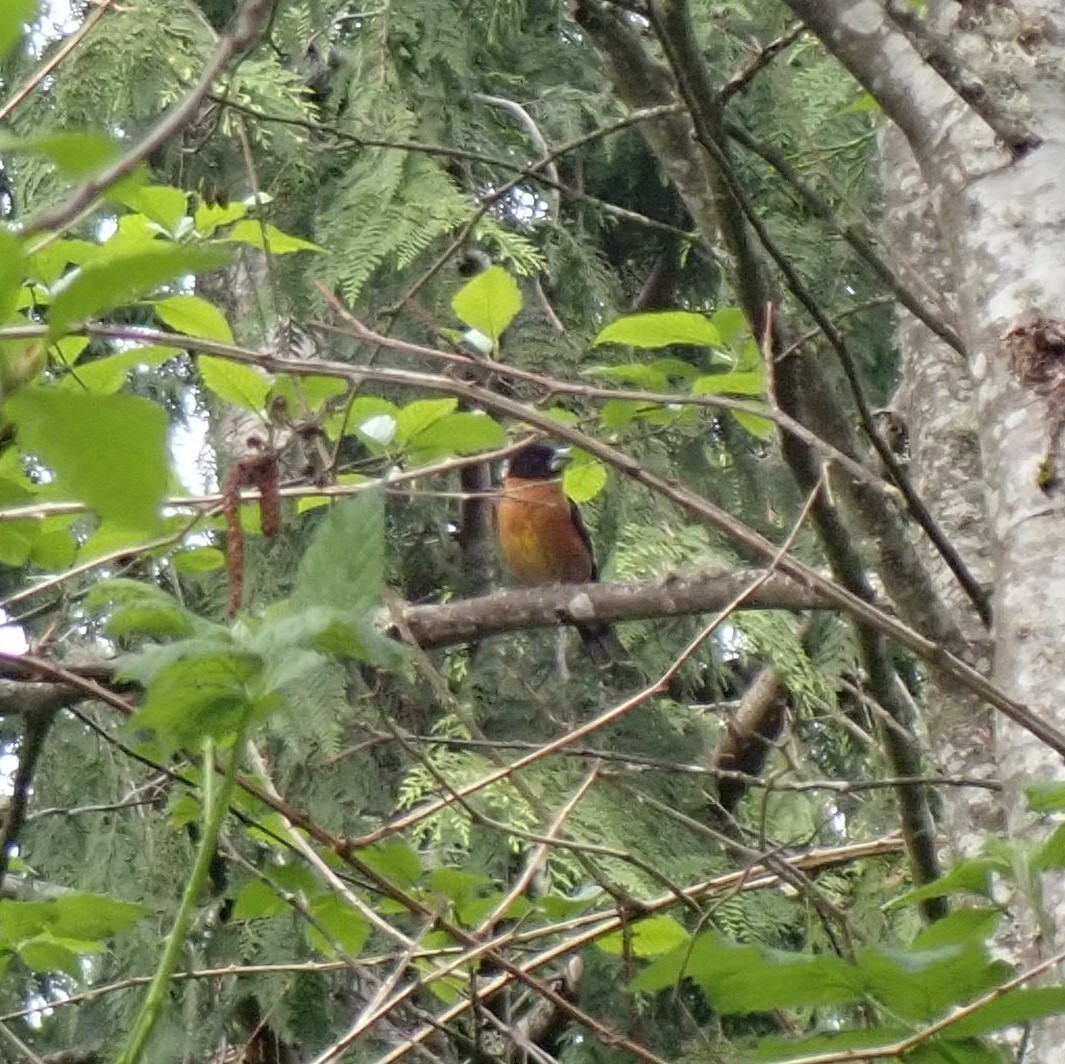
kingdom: Animalia
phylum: Chordata
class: Aves
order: Passeriformes
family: Cardinalidae
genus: Pheucticus
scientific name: Pheucticus melanocephalus
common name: Black-headed grosbeak
